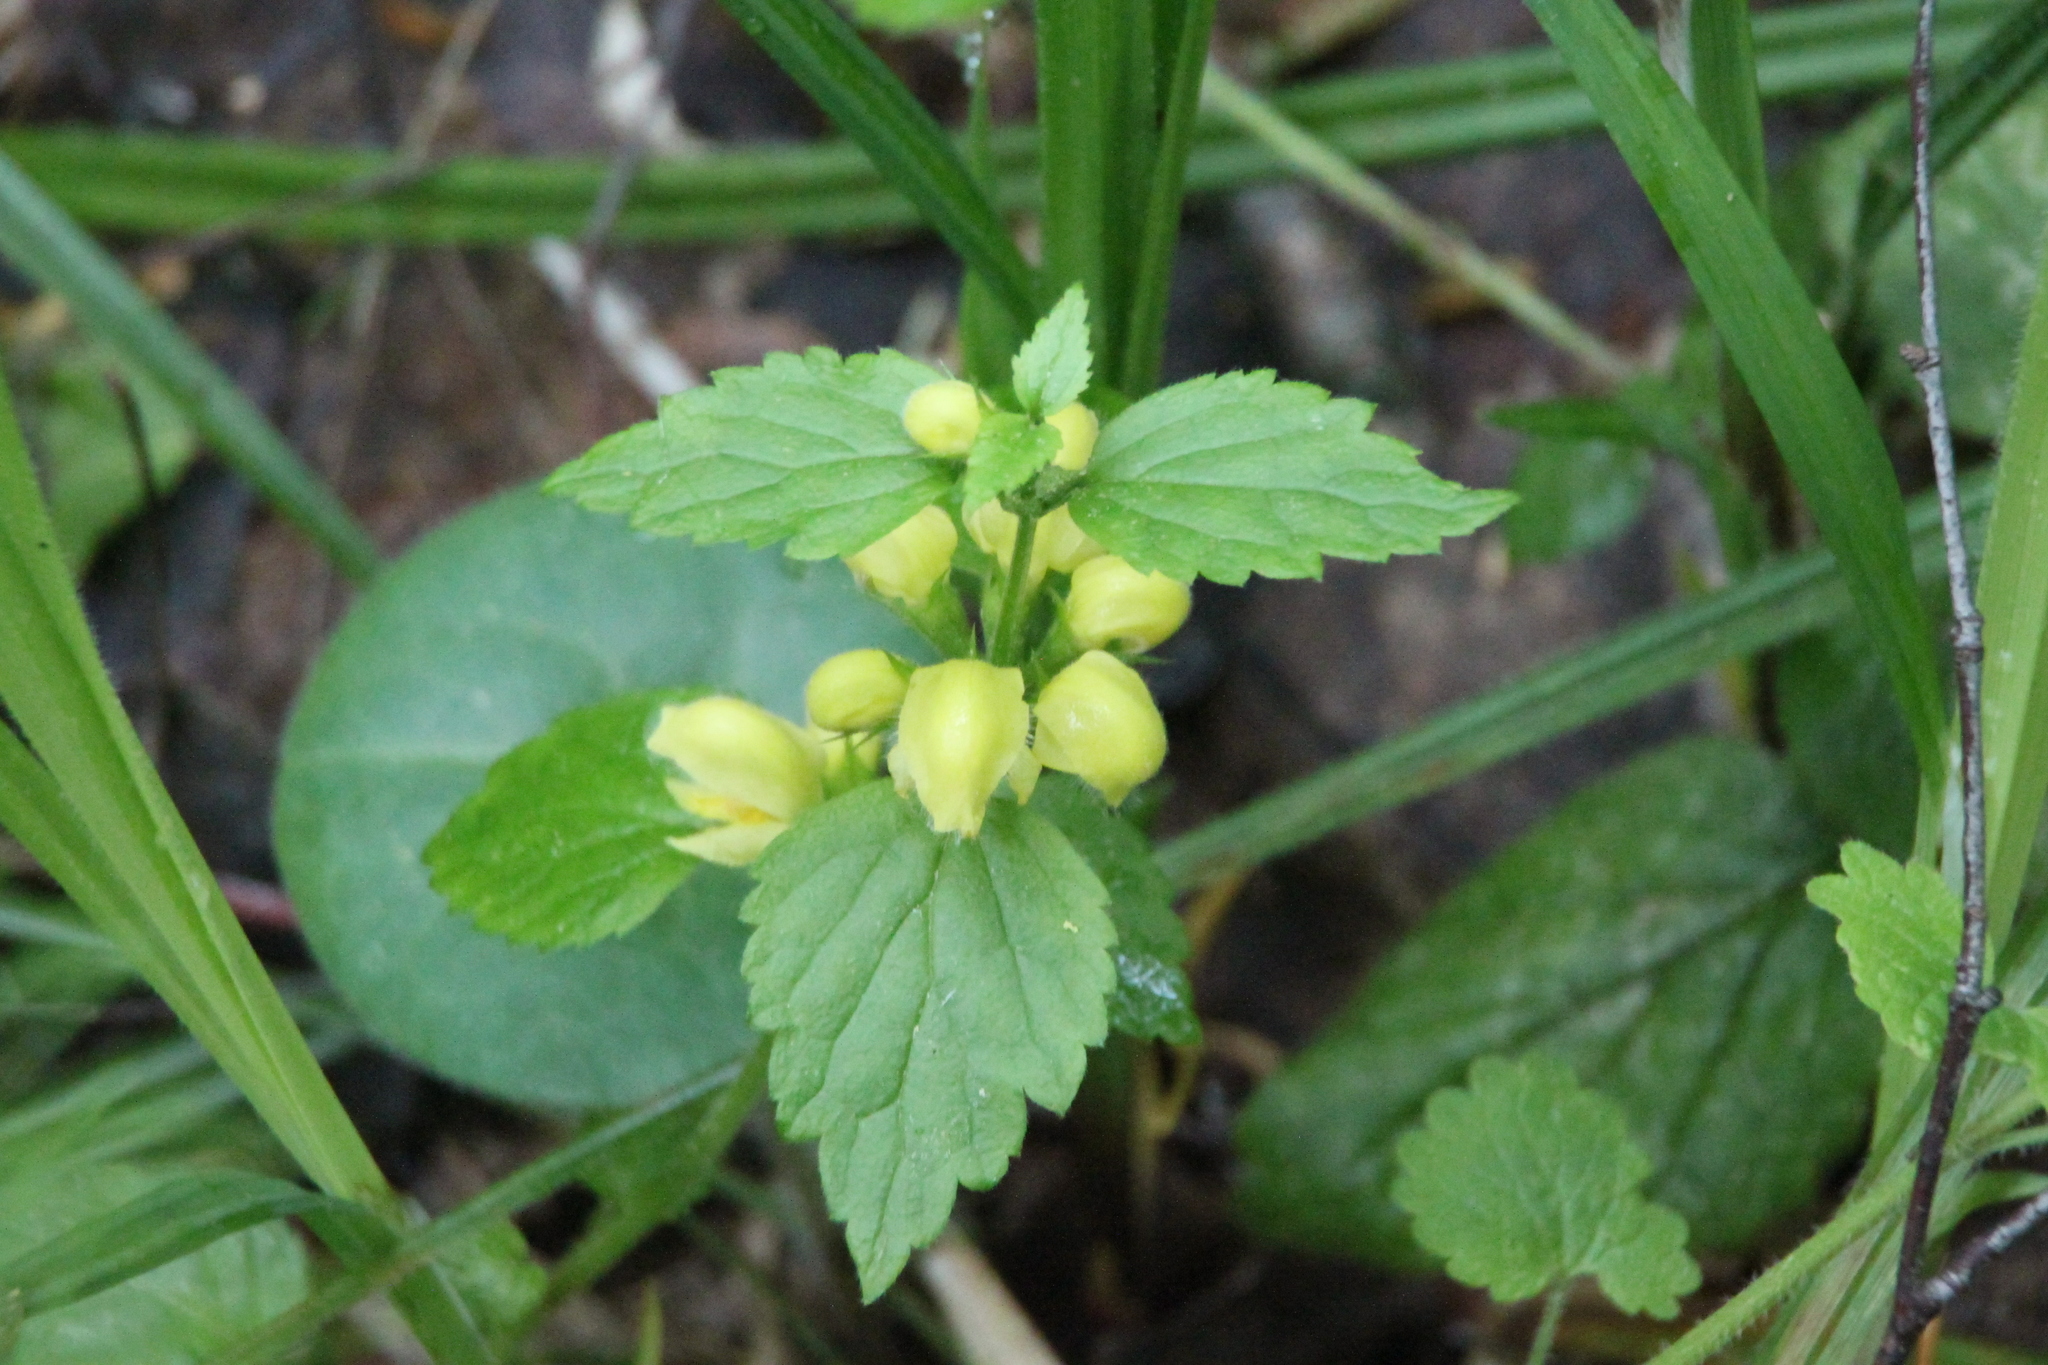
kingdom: Plantae
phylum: Tracheophyta
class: Magnoliopsida
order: Lamiales
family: Lamiaceae
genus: Lamium
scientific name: Lamium galeobdolon
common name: Yellow archangel
